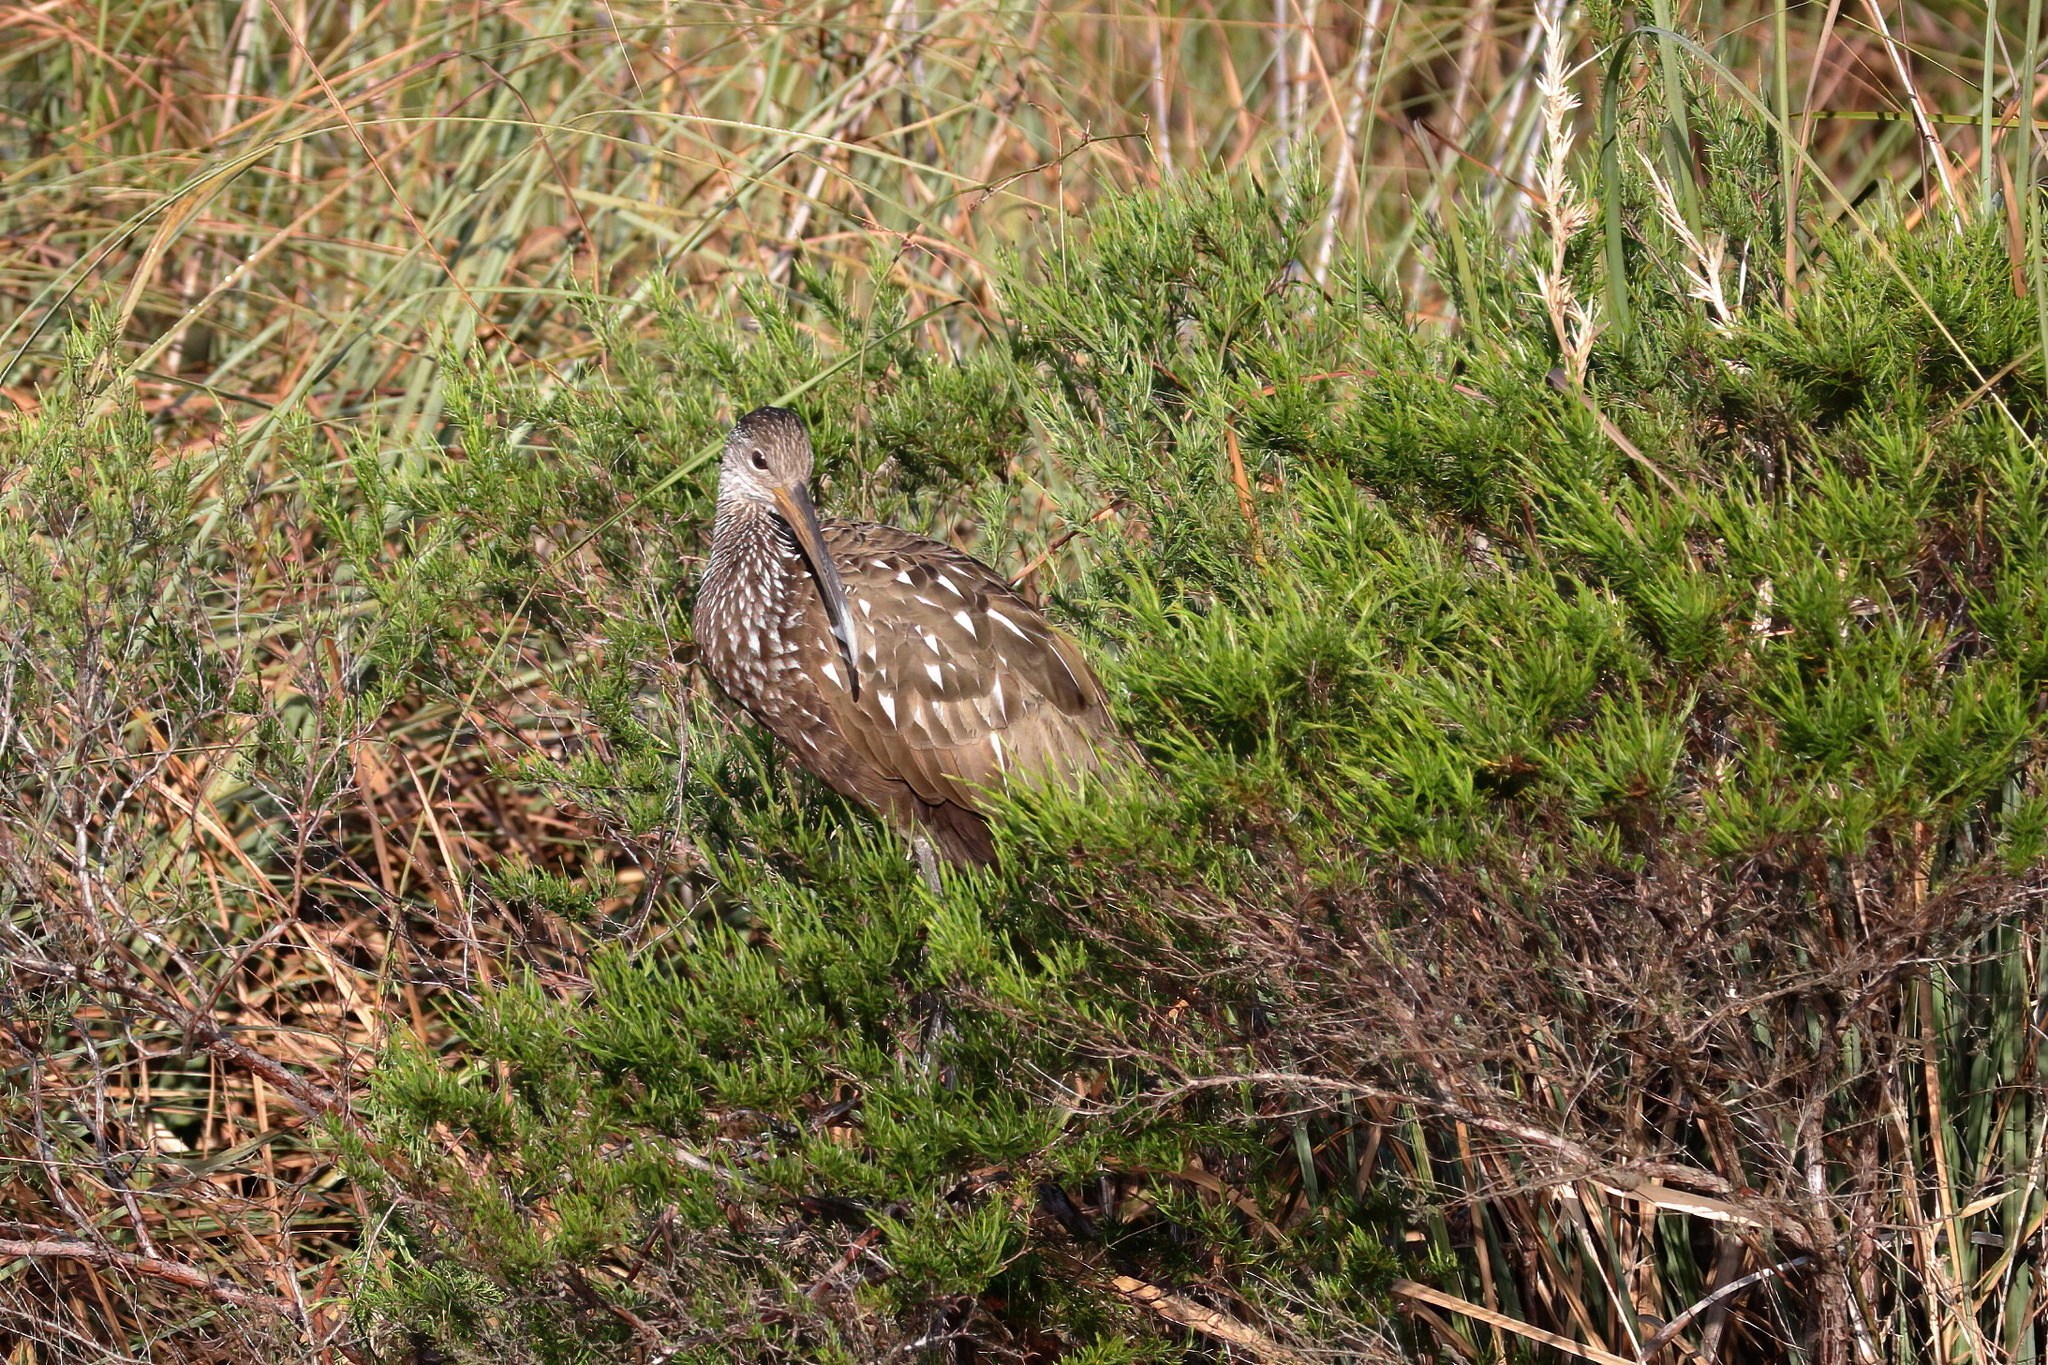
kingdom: Animalia
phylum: Chordata
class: Aves
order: Gruiformes
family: Aramidae
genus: Aramus
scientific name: Aramus guarauna
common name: Limpkin
